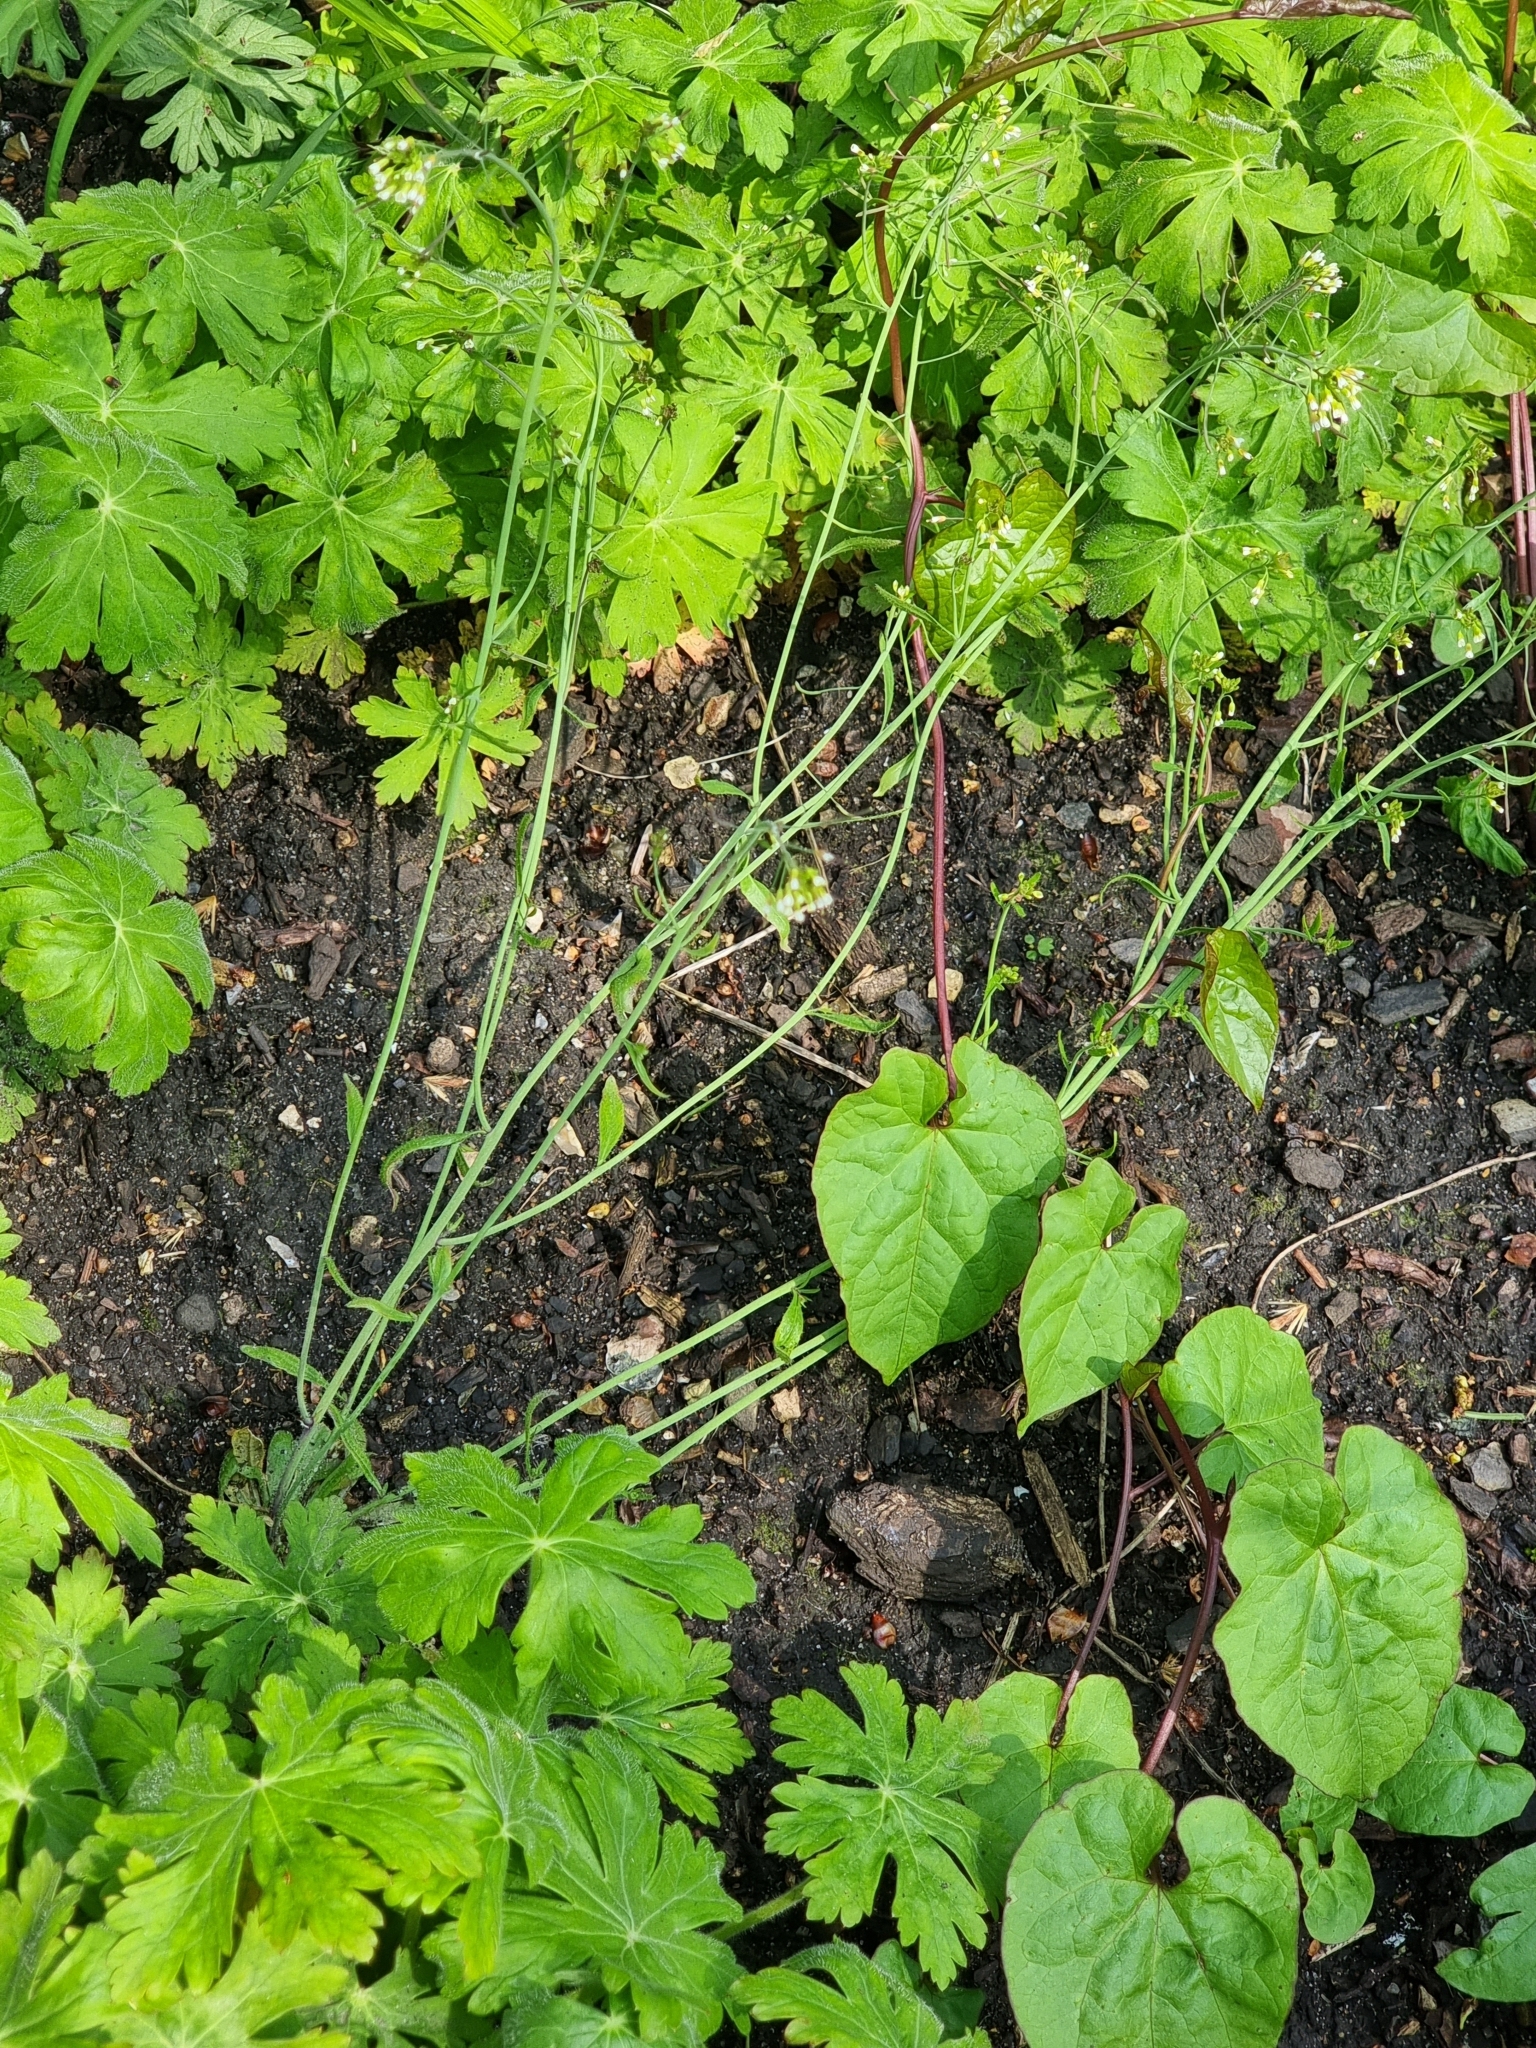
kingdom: Plantae
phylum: Tracheophyta
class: Magnoliopsida
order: Brassicales
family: Brassicaceae
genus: Arabidopsis
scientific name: Arabidopsis thaliana
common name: Thale cress
